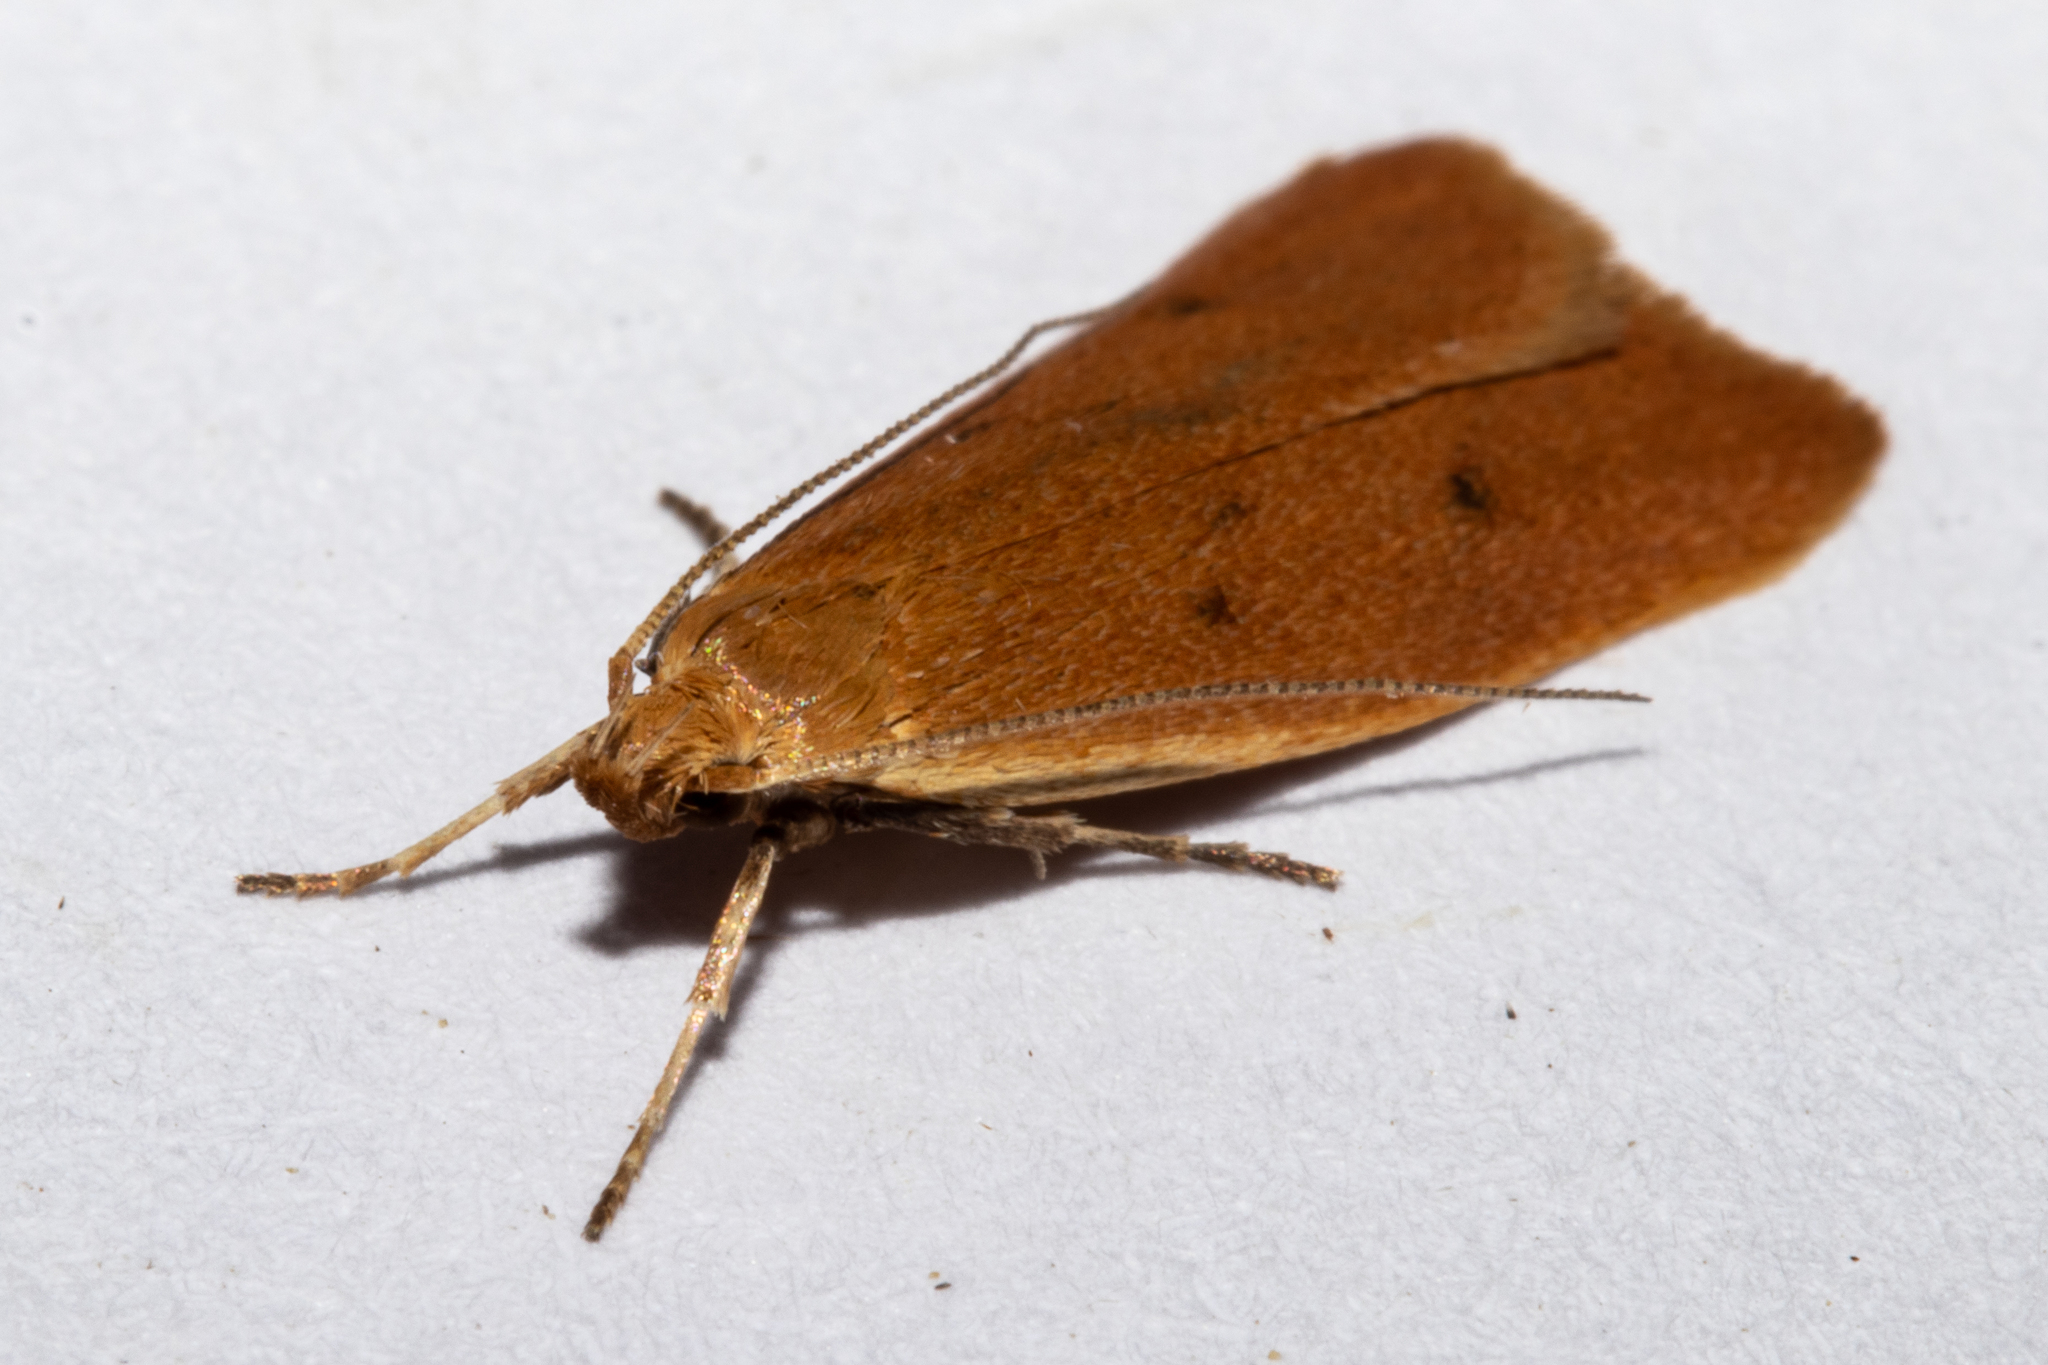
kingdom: Animalia
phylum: Arthropoda
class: Insecta
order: Lepidoptera
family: Oecophoridae
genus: Gymnobathra
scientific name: Gymnobathra sarcoxantha
